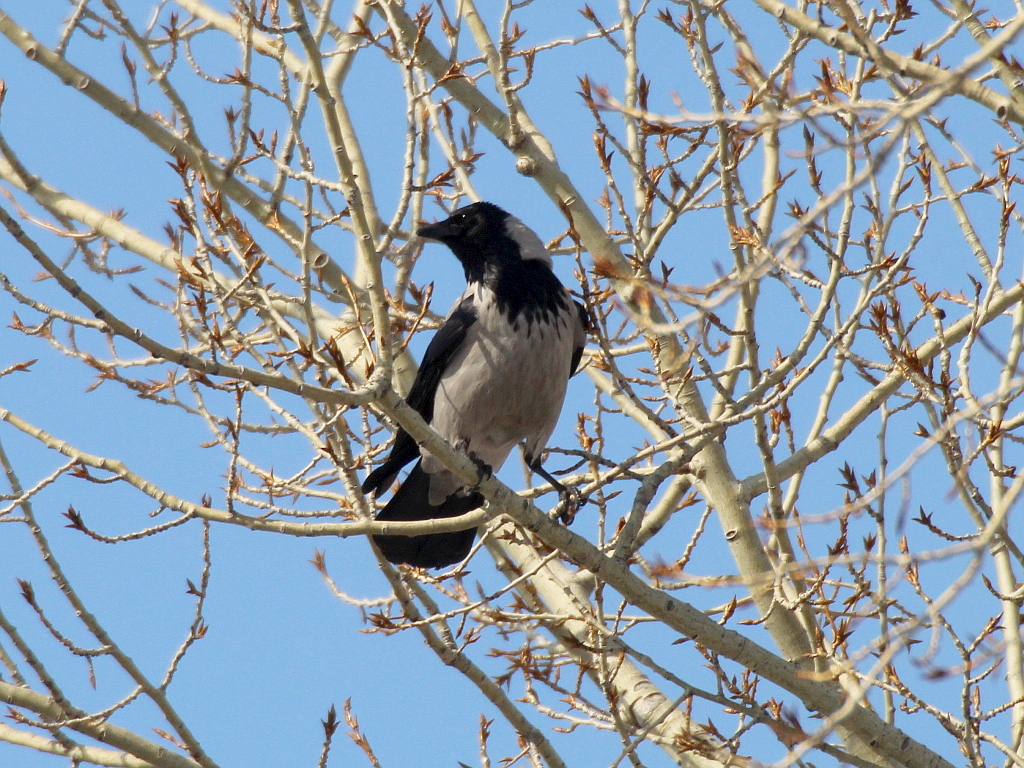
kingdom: Animalia
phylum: Chordata
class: Aves
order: Passeriformes
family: Corvidae
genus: Corvus
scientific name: Corvus cornix
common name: Hooded crow
